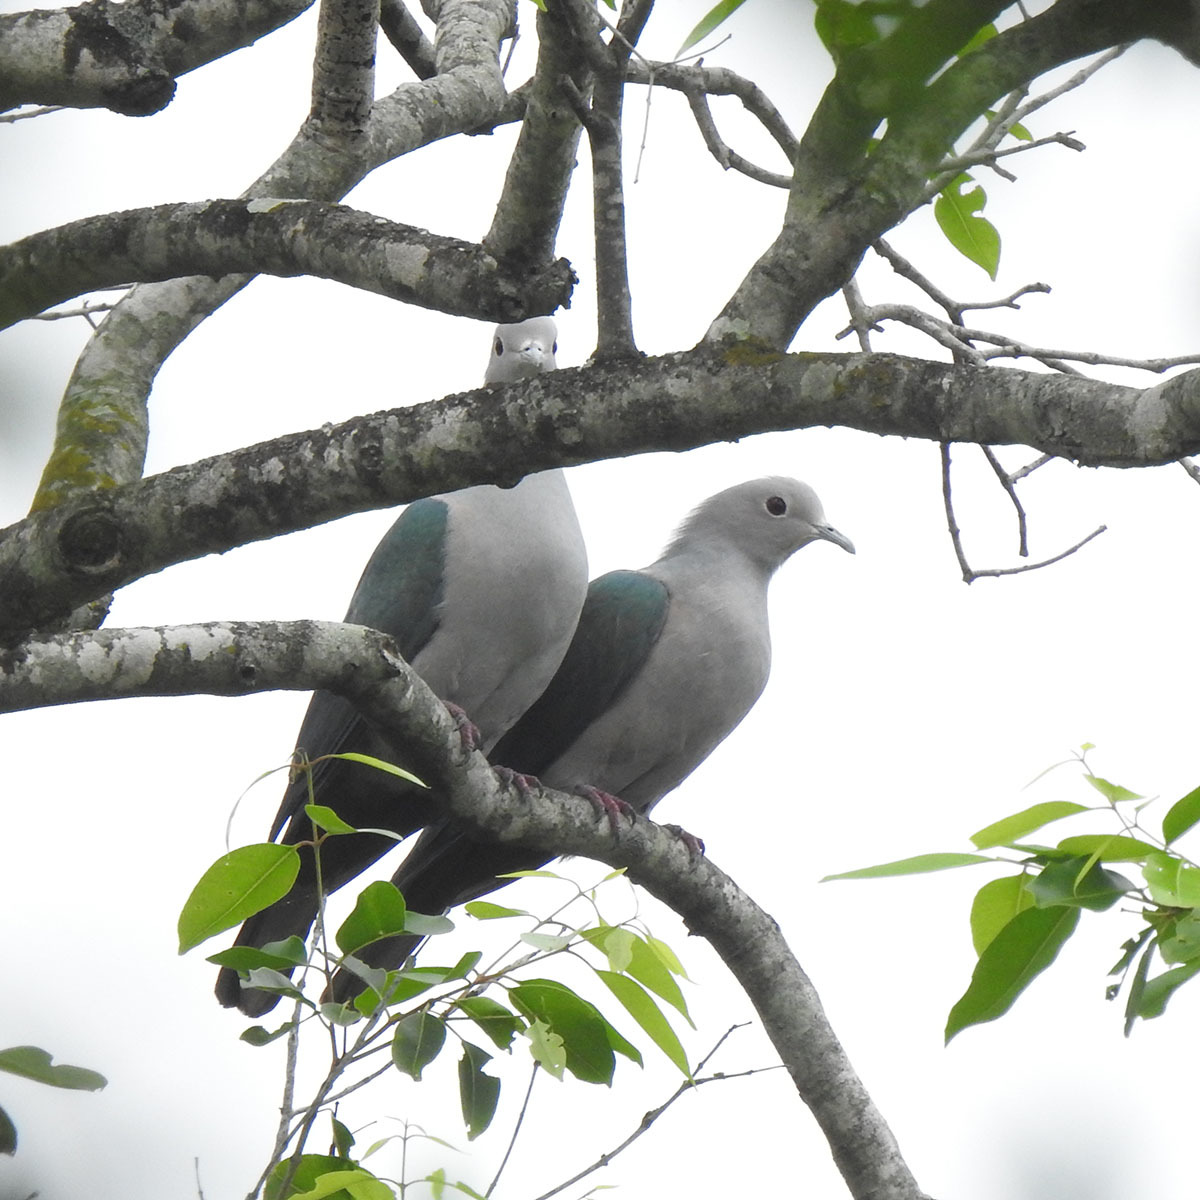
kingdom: Animalia
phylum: Chordata
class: Aves
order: Columbiformes
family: Columbidae
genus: Ducula
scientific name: Ducula aenea
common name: Green imperial pigeon
